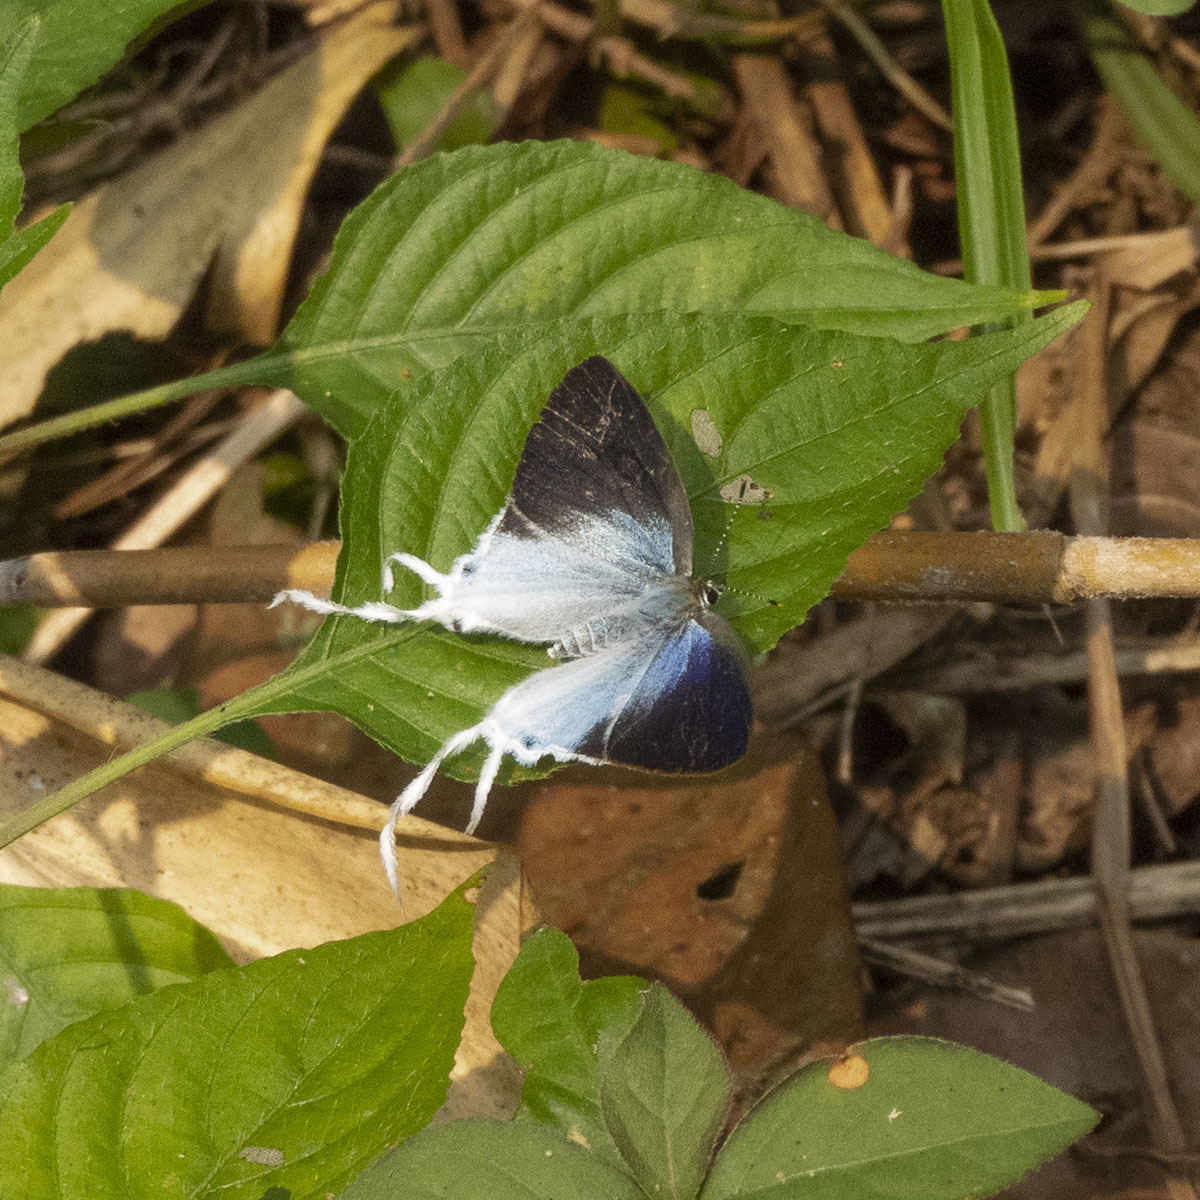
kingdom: Animalia
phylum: Arthropoda
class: Insecta
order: Lepidoptera
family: Lycaenidae
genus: Zeltus
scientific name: Zeltus amasa
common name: Fluffy tit
